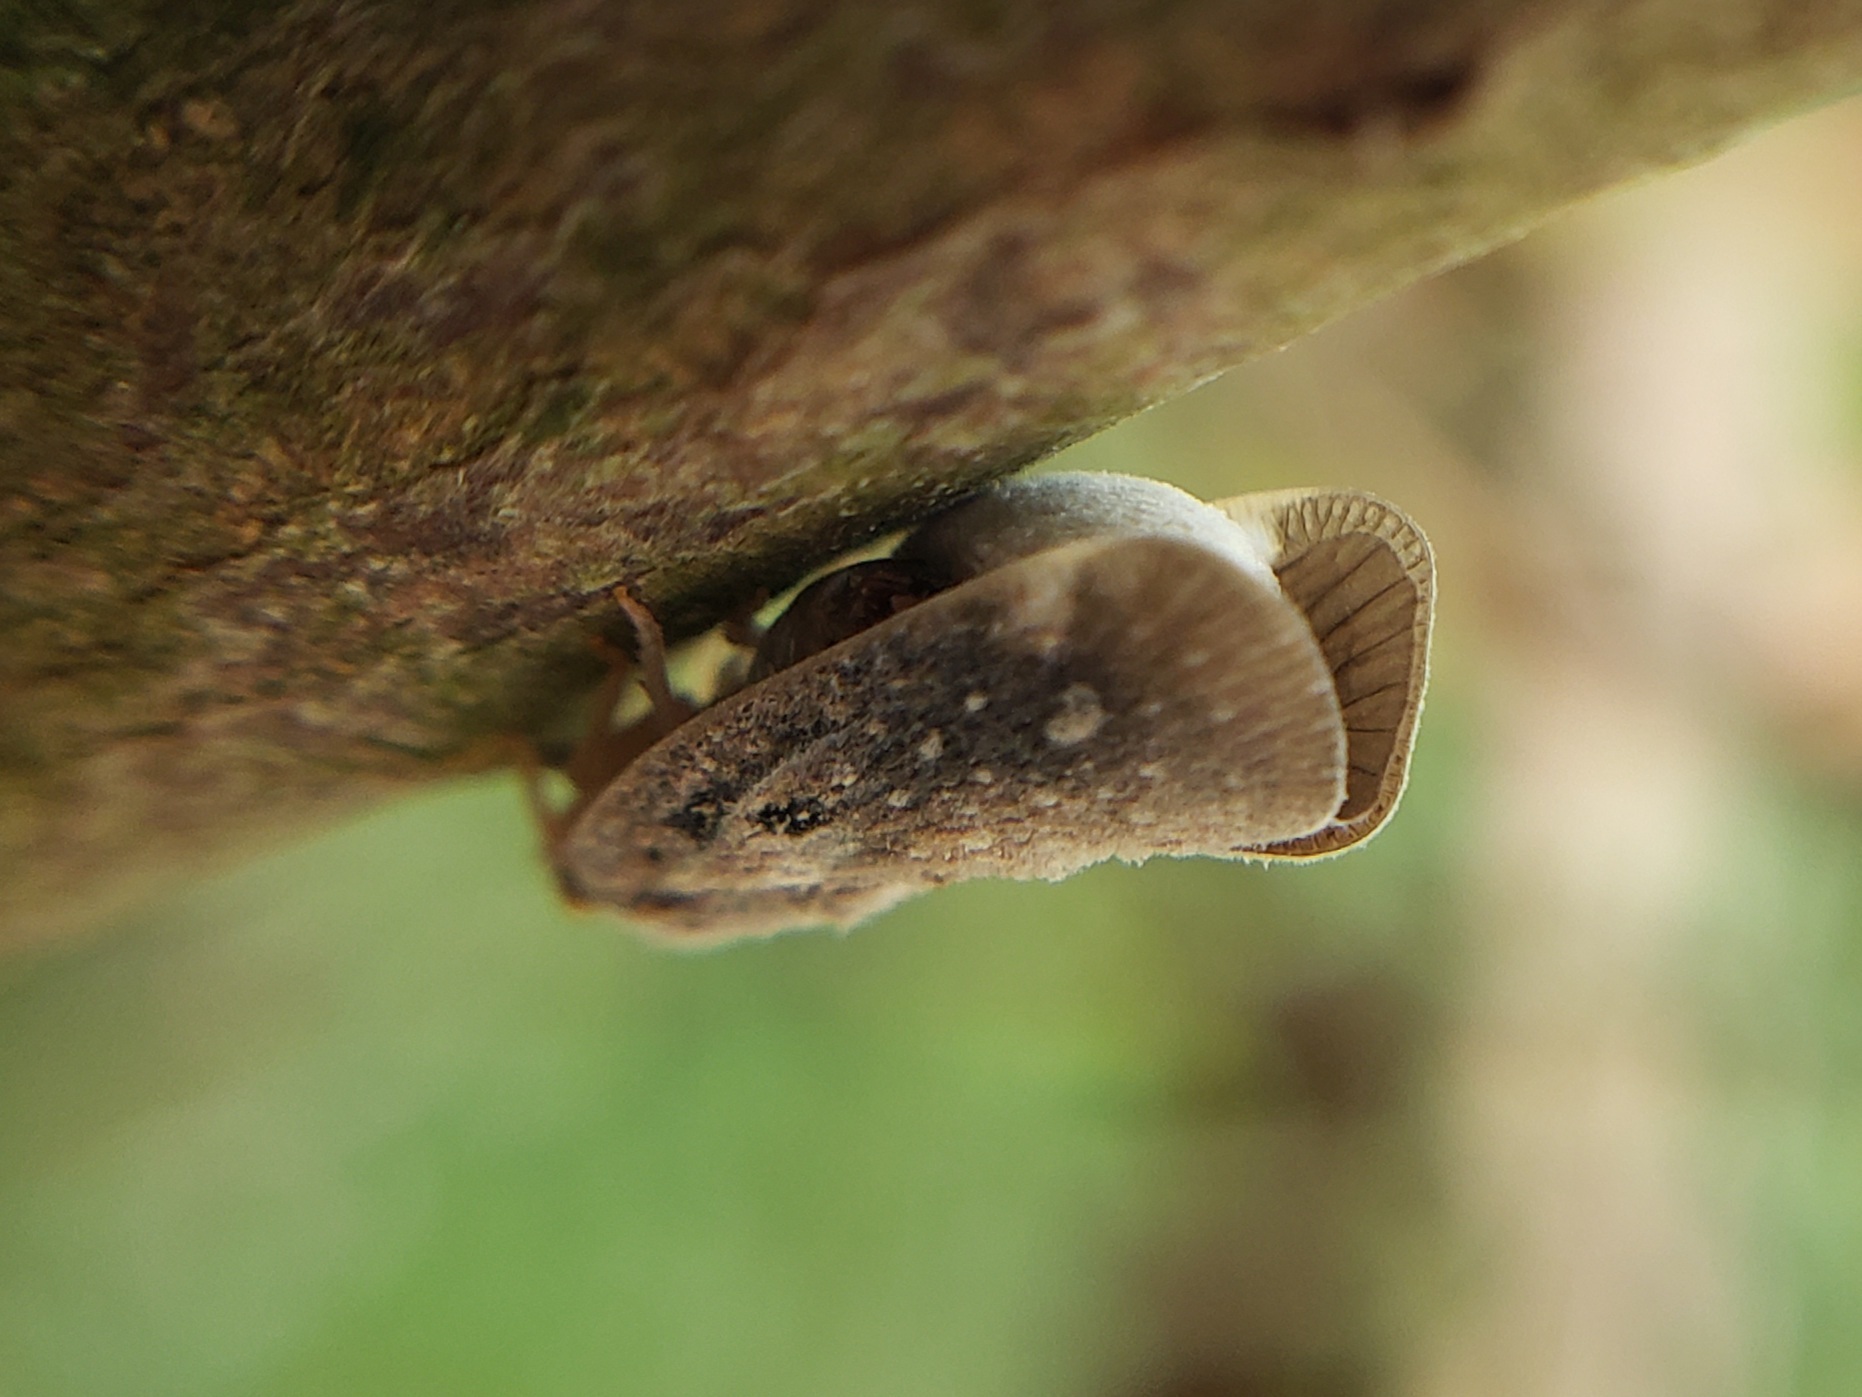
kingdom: Animalia
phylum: Arthropoda
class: Insecta
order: Hemiptera
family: Flatidae
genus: Metcalfa
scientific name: Metcalfa pruinosa
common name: Citrus flatid planthopper
